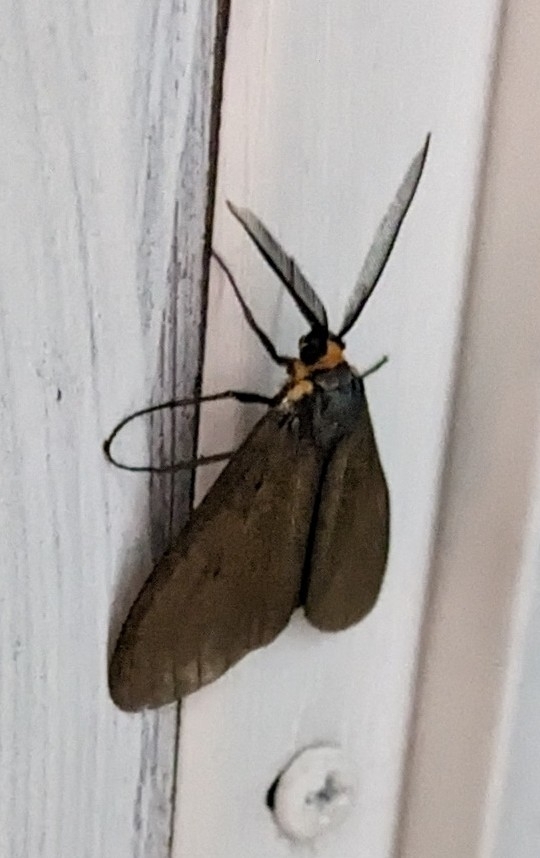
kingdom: Animalia
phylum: Arthropoda
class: Insecta
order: Lepidoptera
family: Erebidae
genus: Ctenucha
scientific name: Ctenucha virginica
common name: Virginia ctenucha moth
